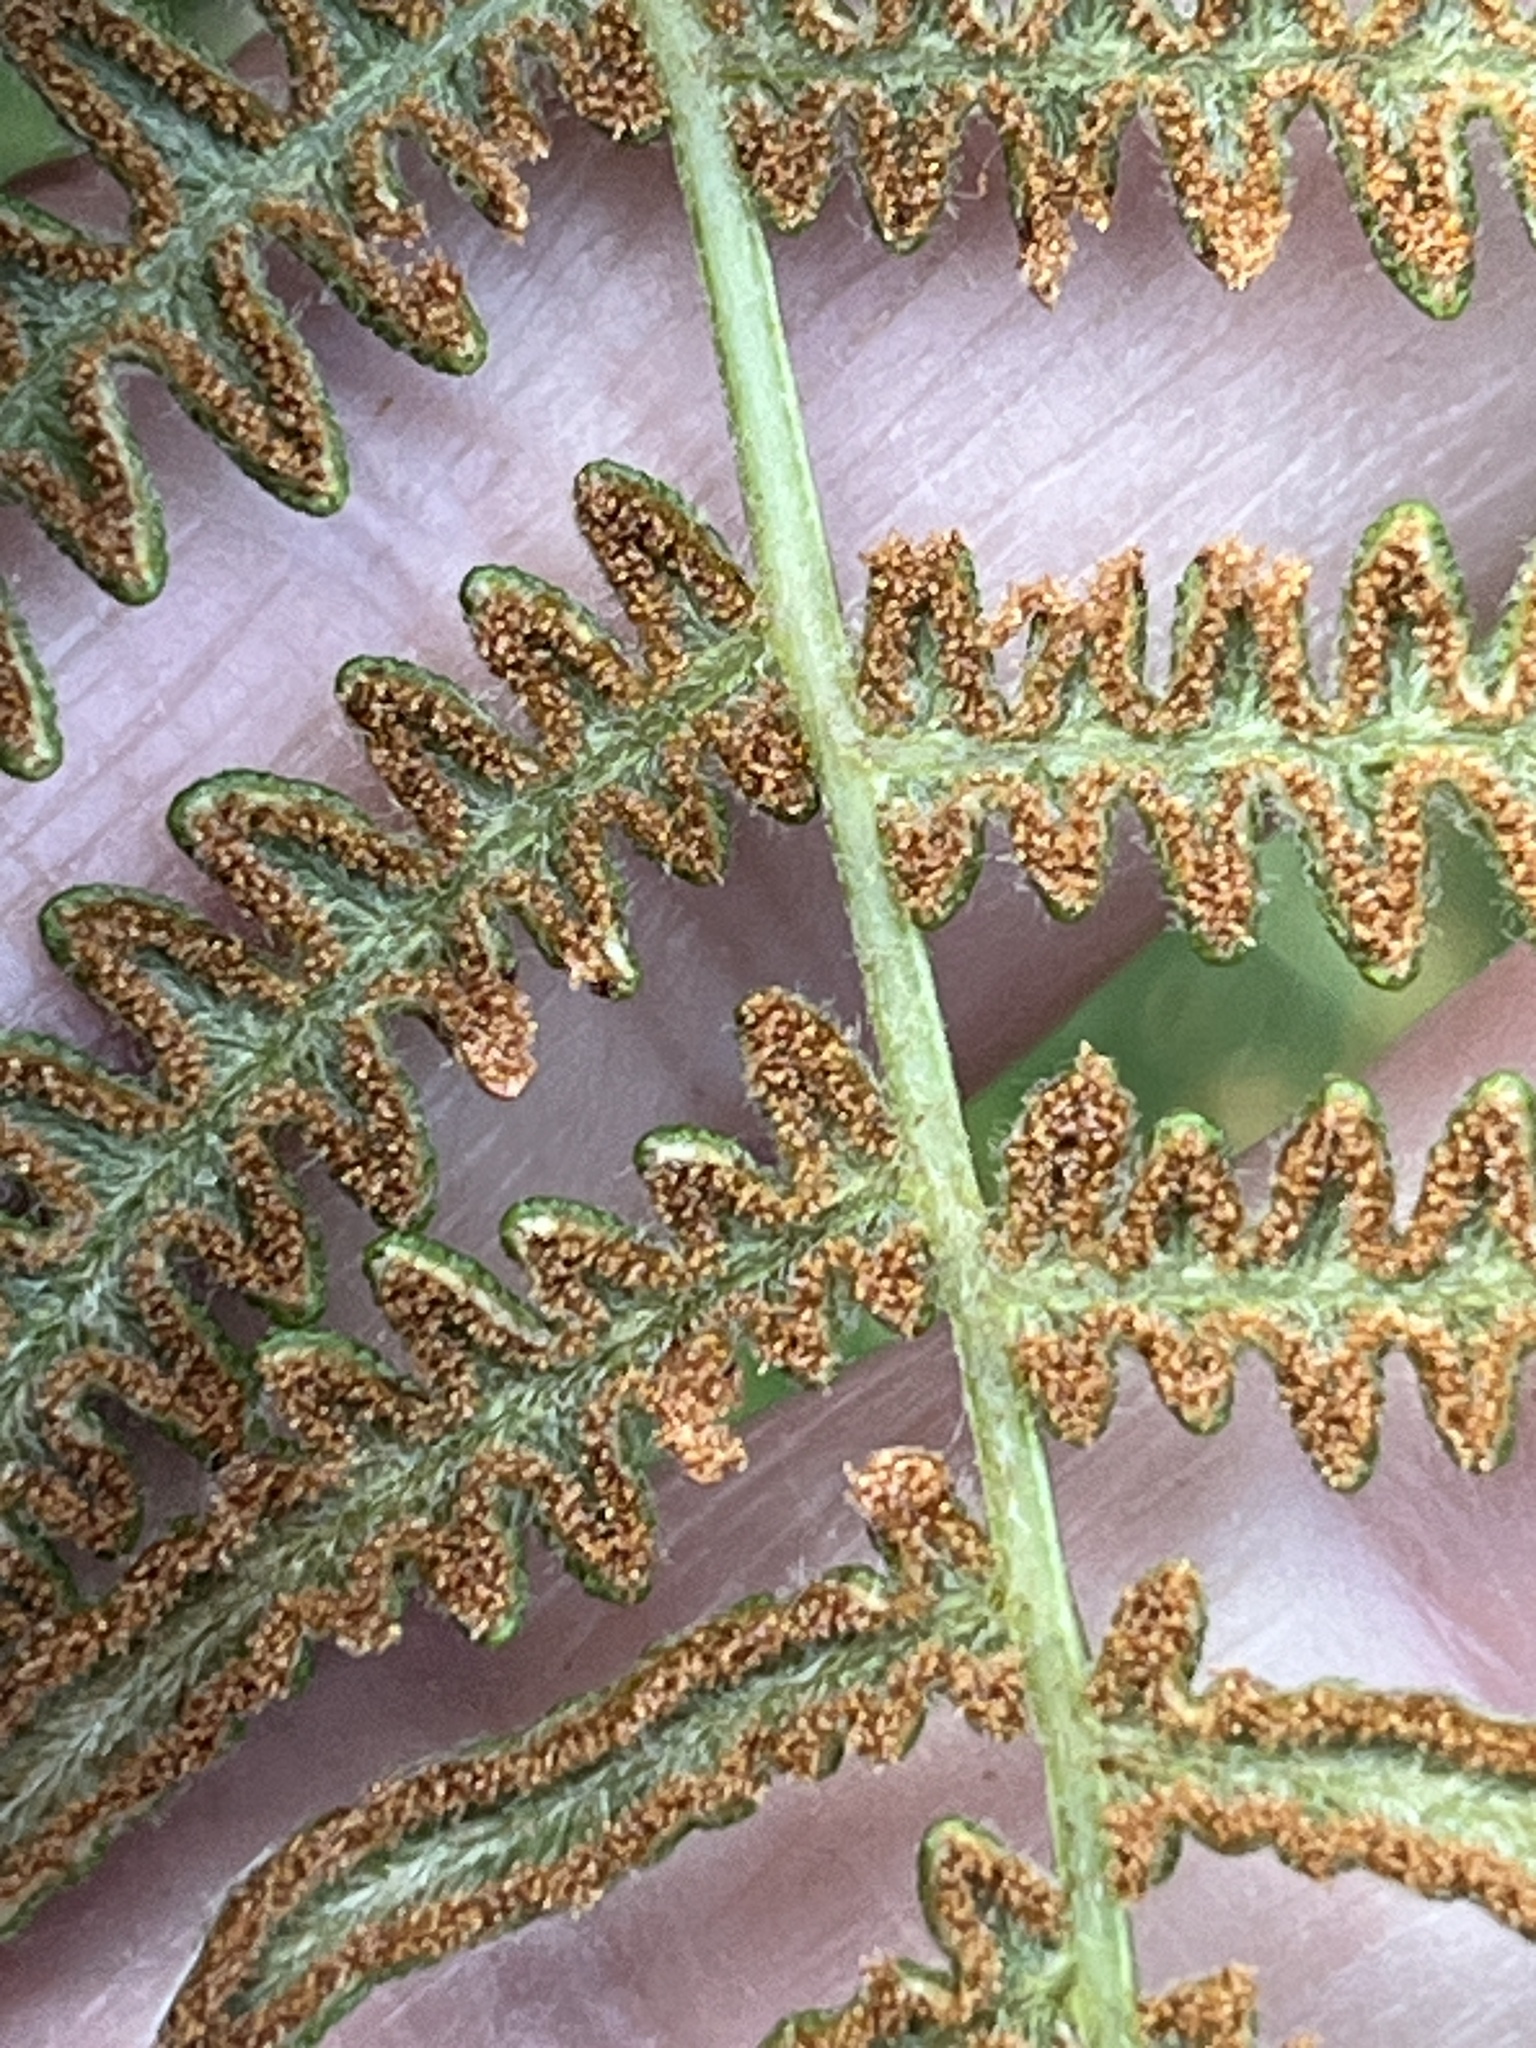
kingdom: Plantae
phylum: Tracheophyta
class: Polypodiopsida
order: Polypodiales
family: Dennstaedtiaceae
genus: Pteridium
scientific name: Pteridium aquilinum
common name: Bracken
